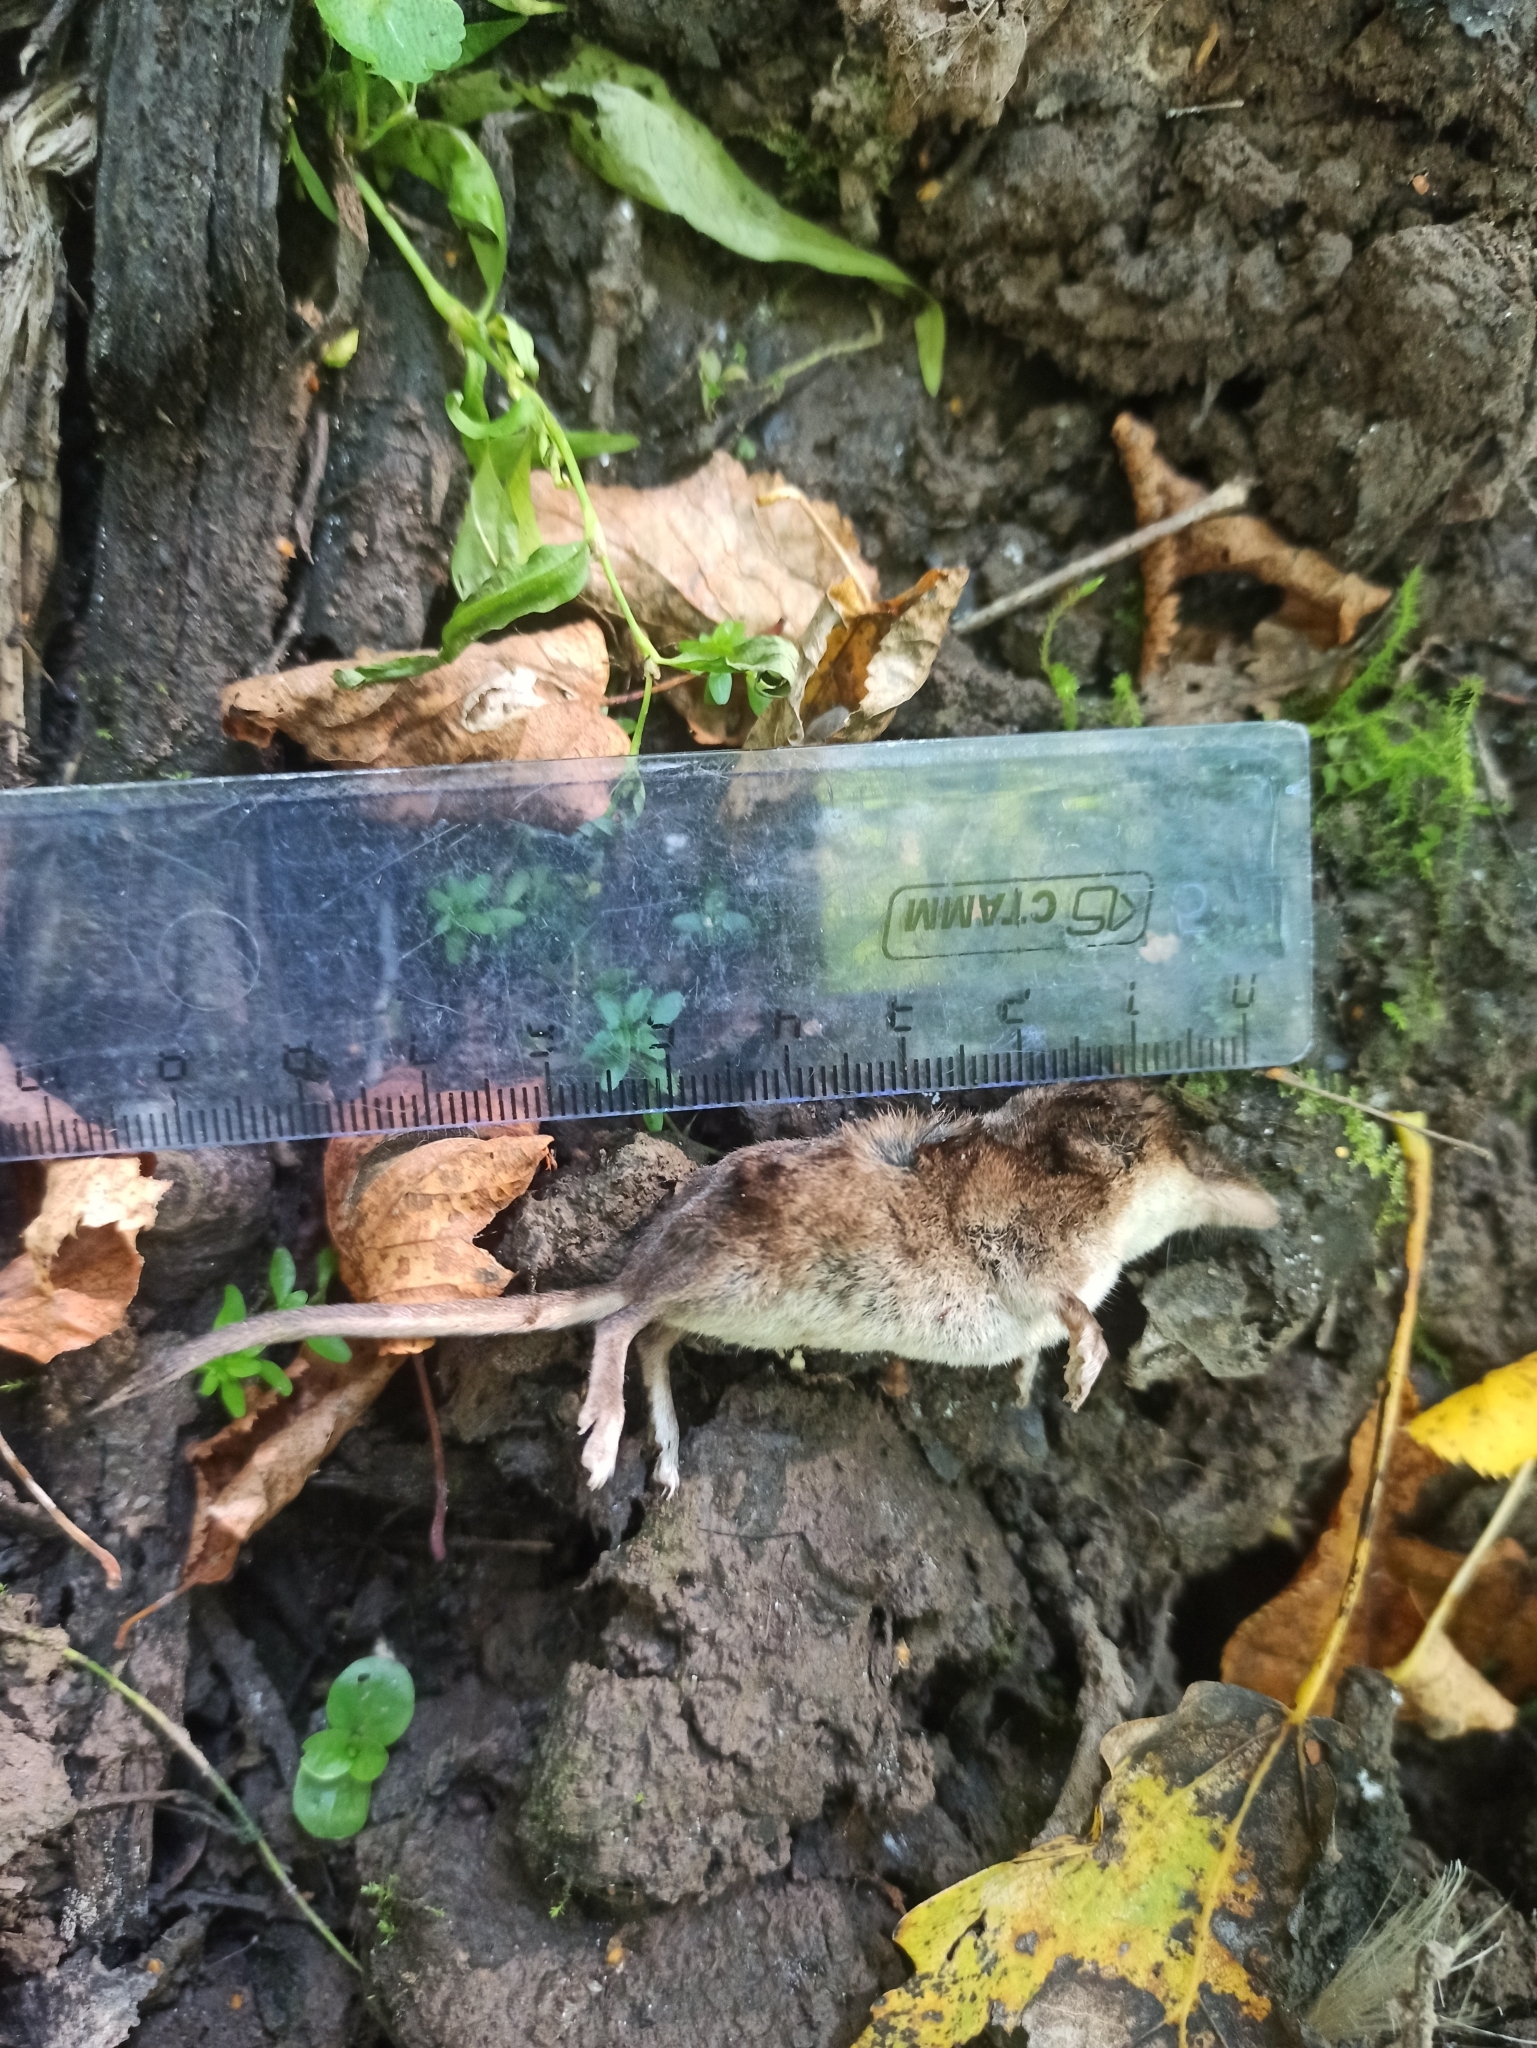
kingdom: Animalia
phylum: Chordata
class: Mammalia
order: Soricomorpha
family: Soricidae
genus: Sorex
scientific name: Sorex araneus
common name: Common shrew
